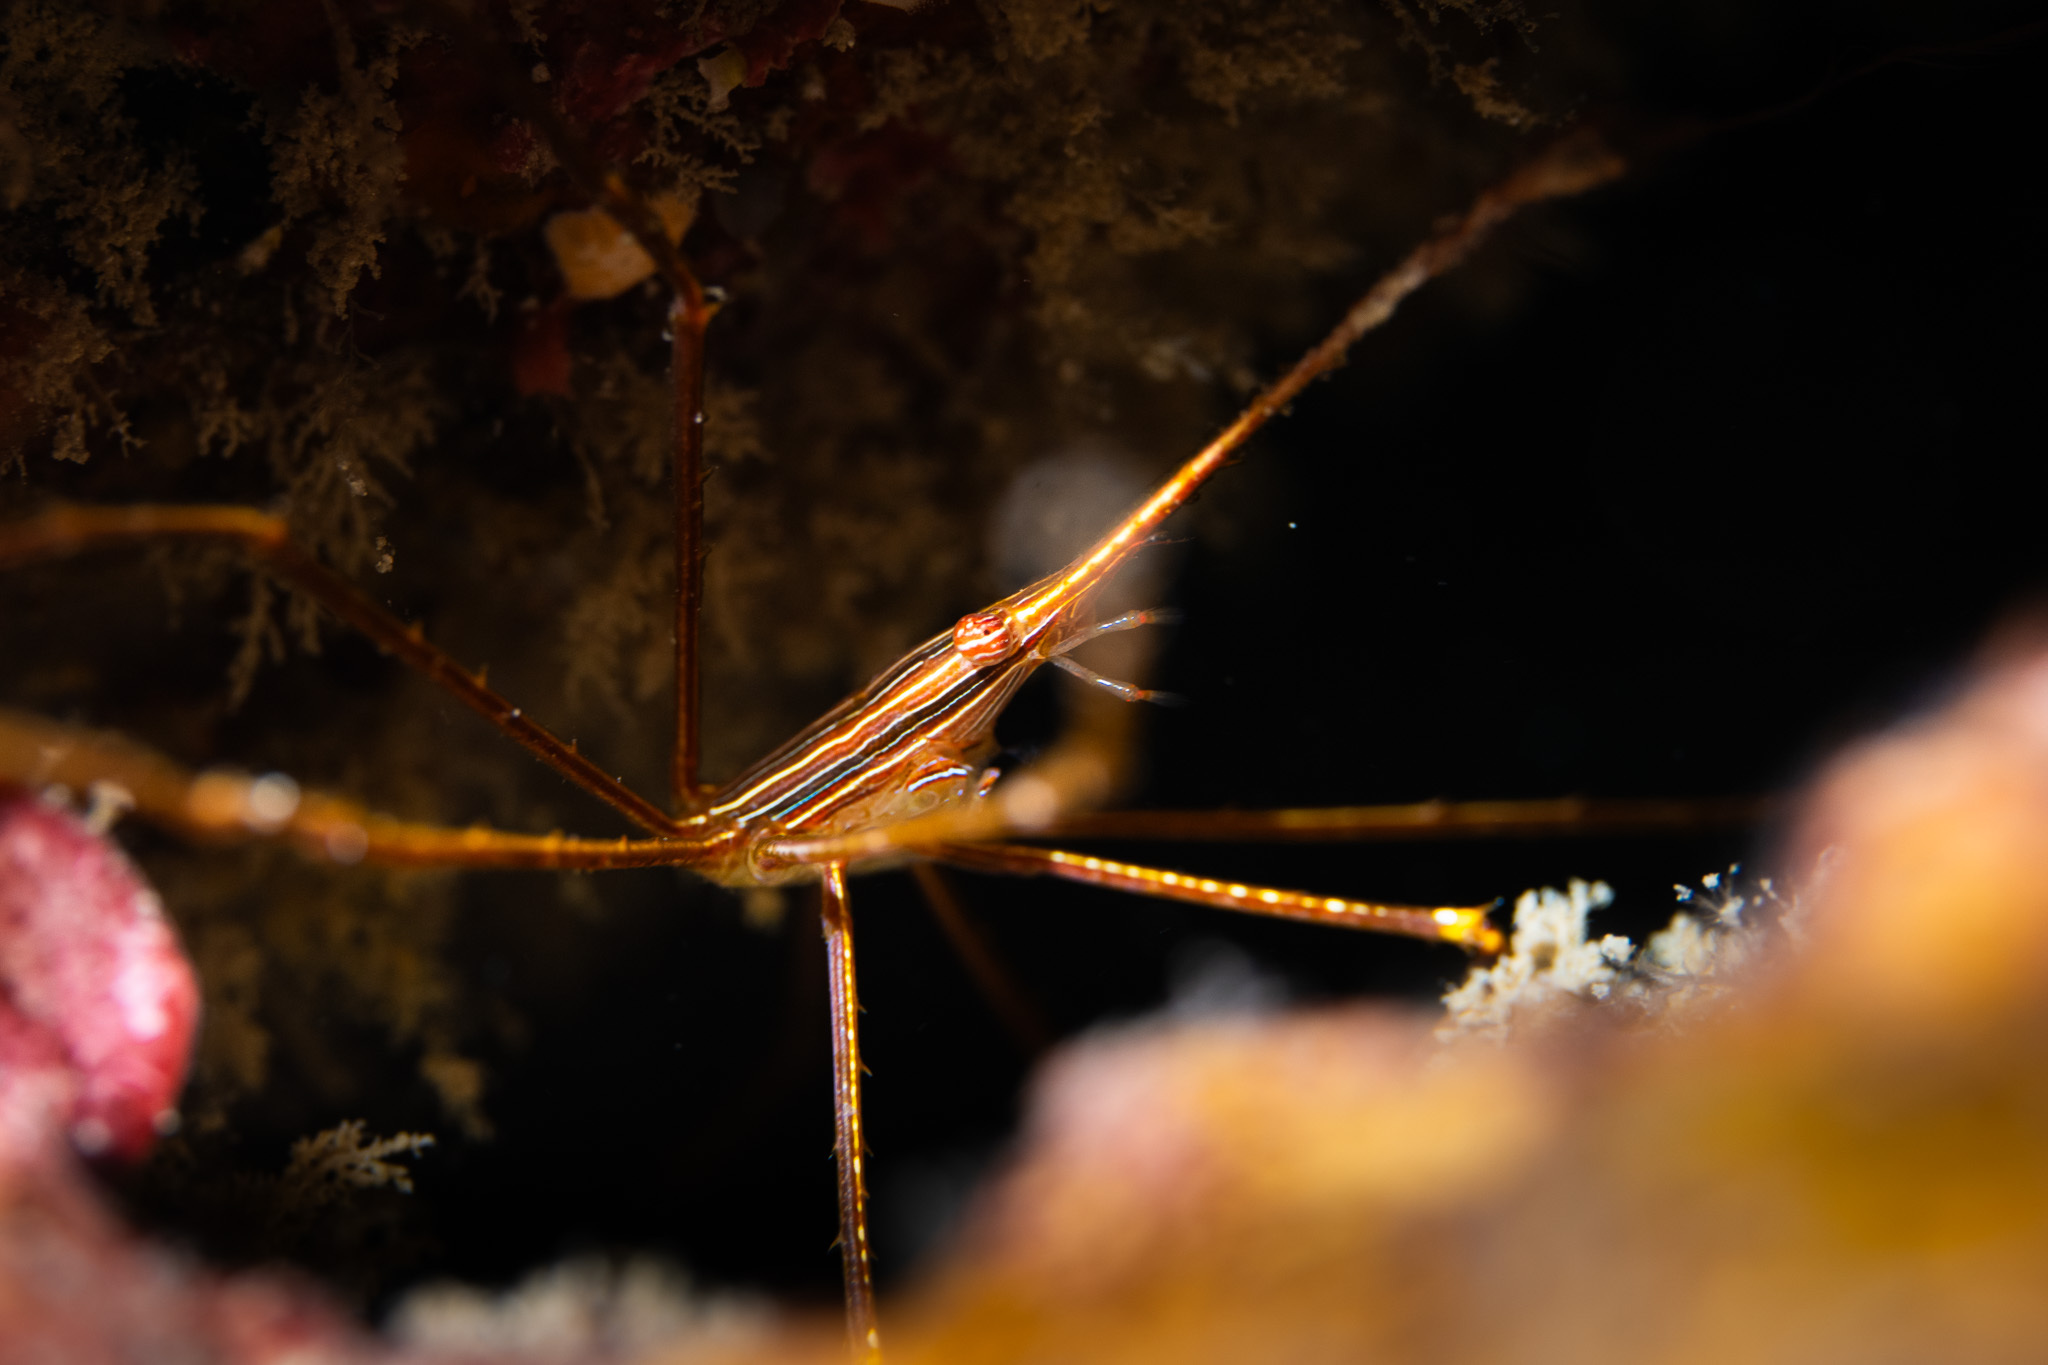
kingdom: Animalia
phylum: Arthropoda
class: Malacostraca
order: Decapoda
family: Inachoididae
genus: Stenorhynchus
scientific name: Stenorhynchus seticornis
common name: Arrow crab
